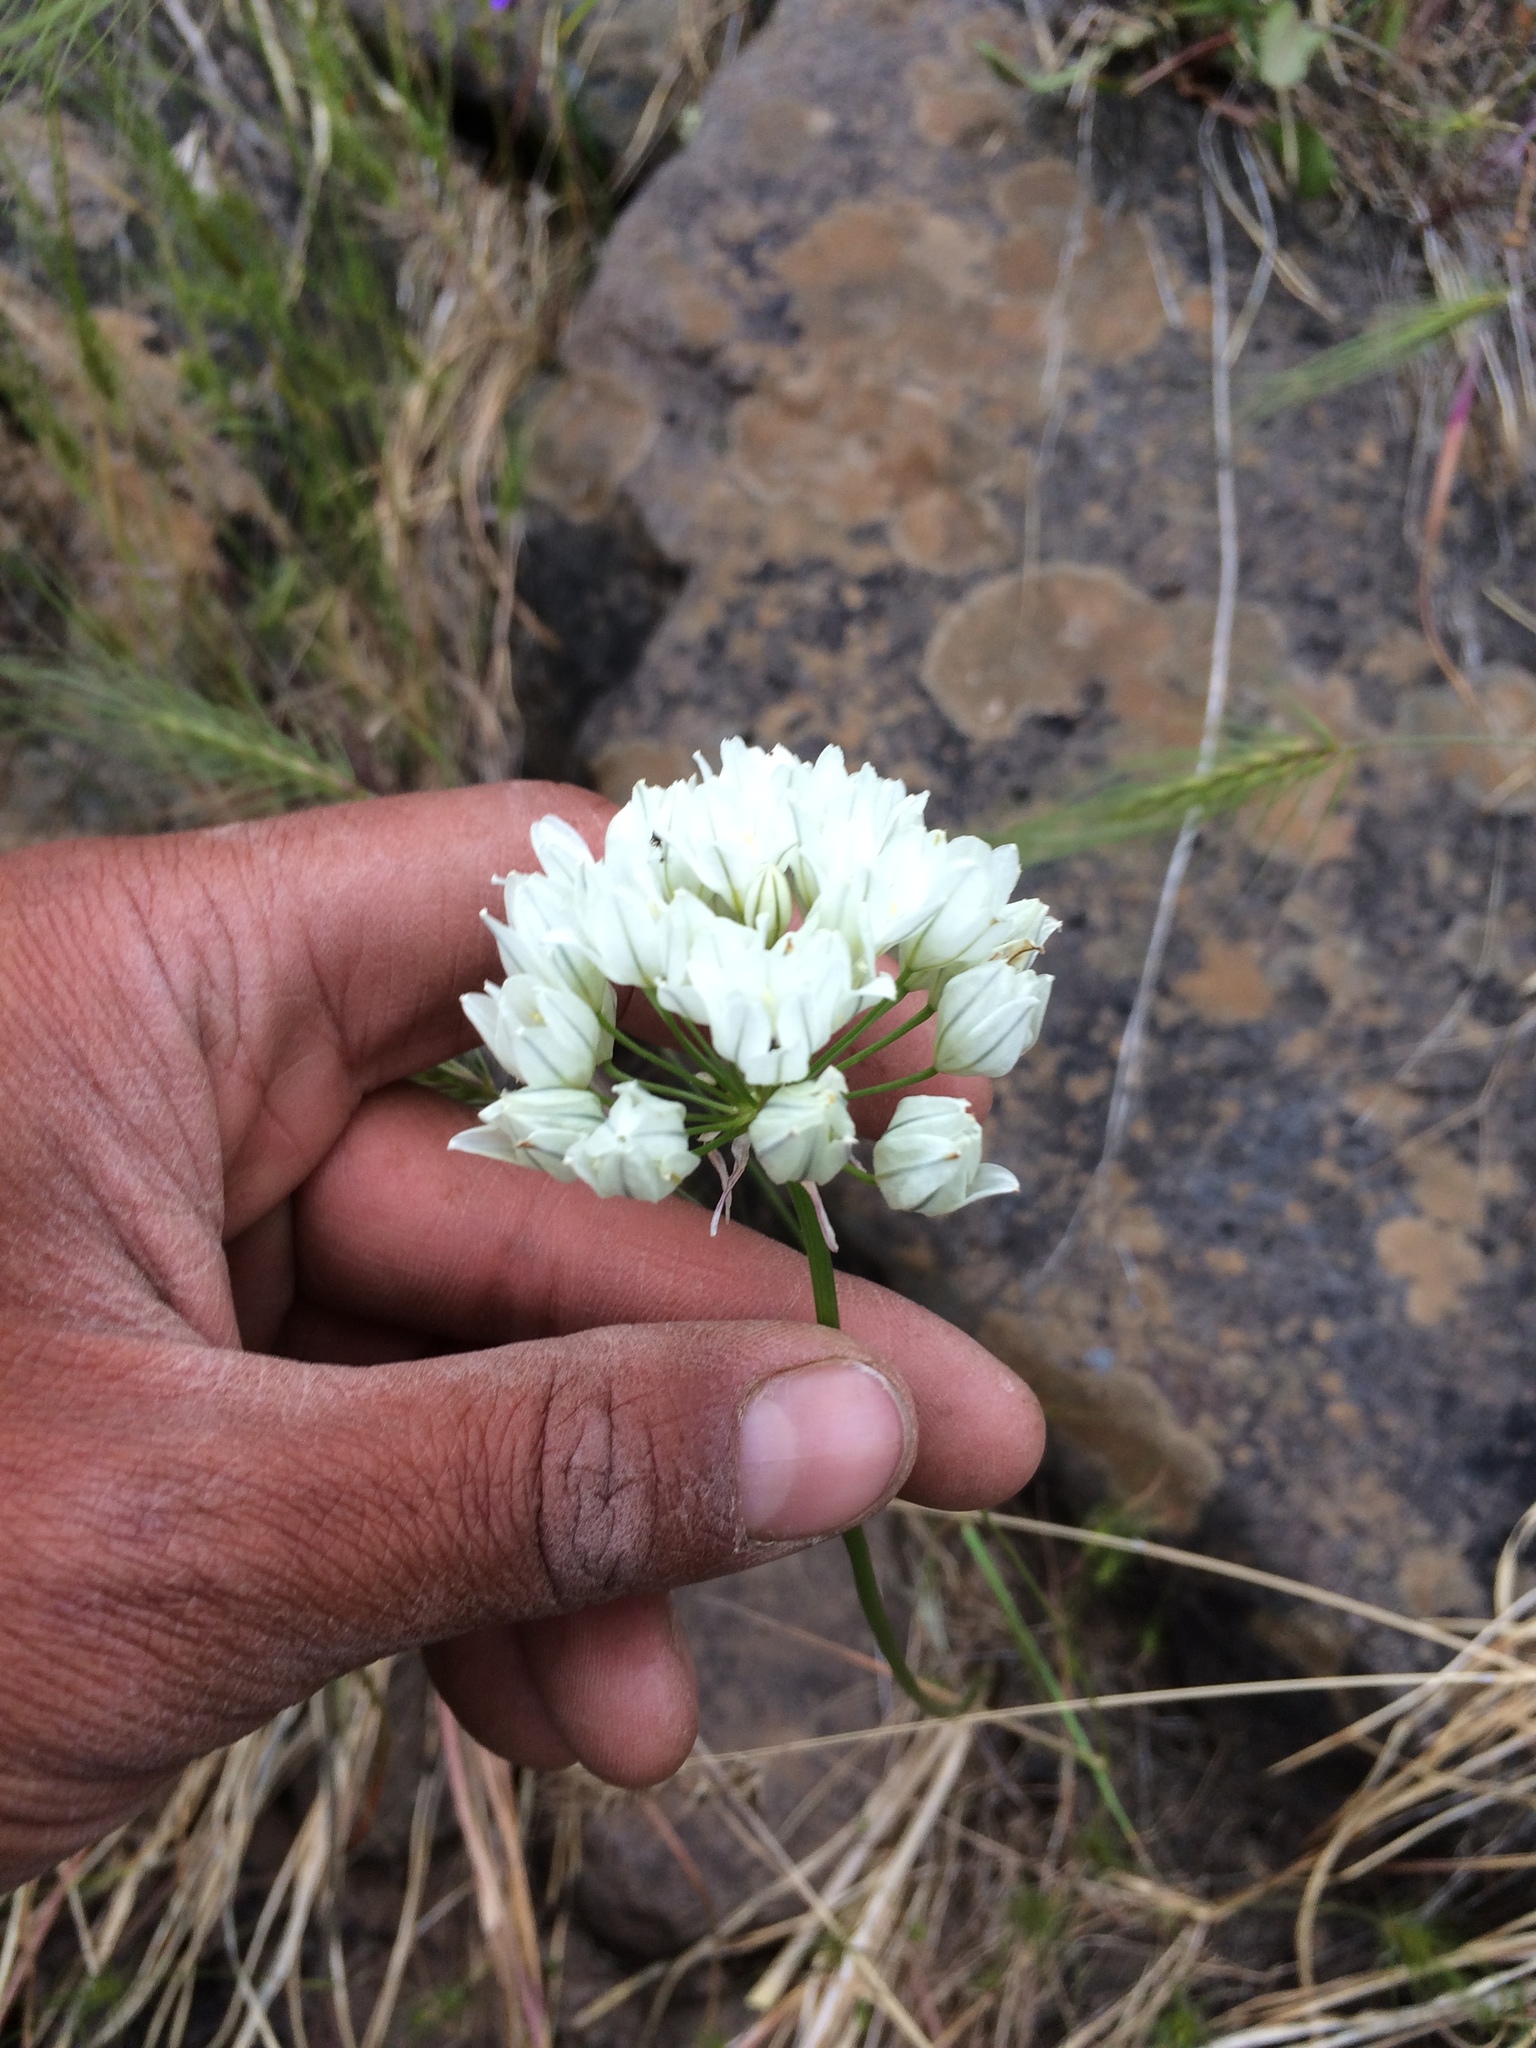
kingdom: Plantae
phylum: Tracheophyta
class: Liliopsida
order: Asparagales
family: Asparagaceae
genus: Triteleia
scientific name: Triteleia hyacinthina
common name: White brodiaea
